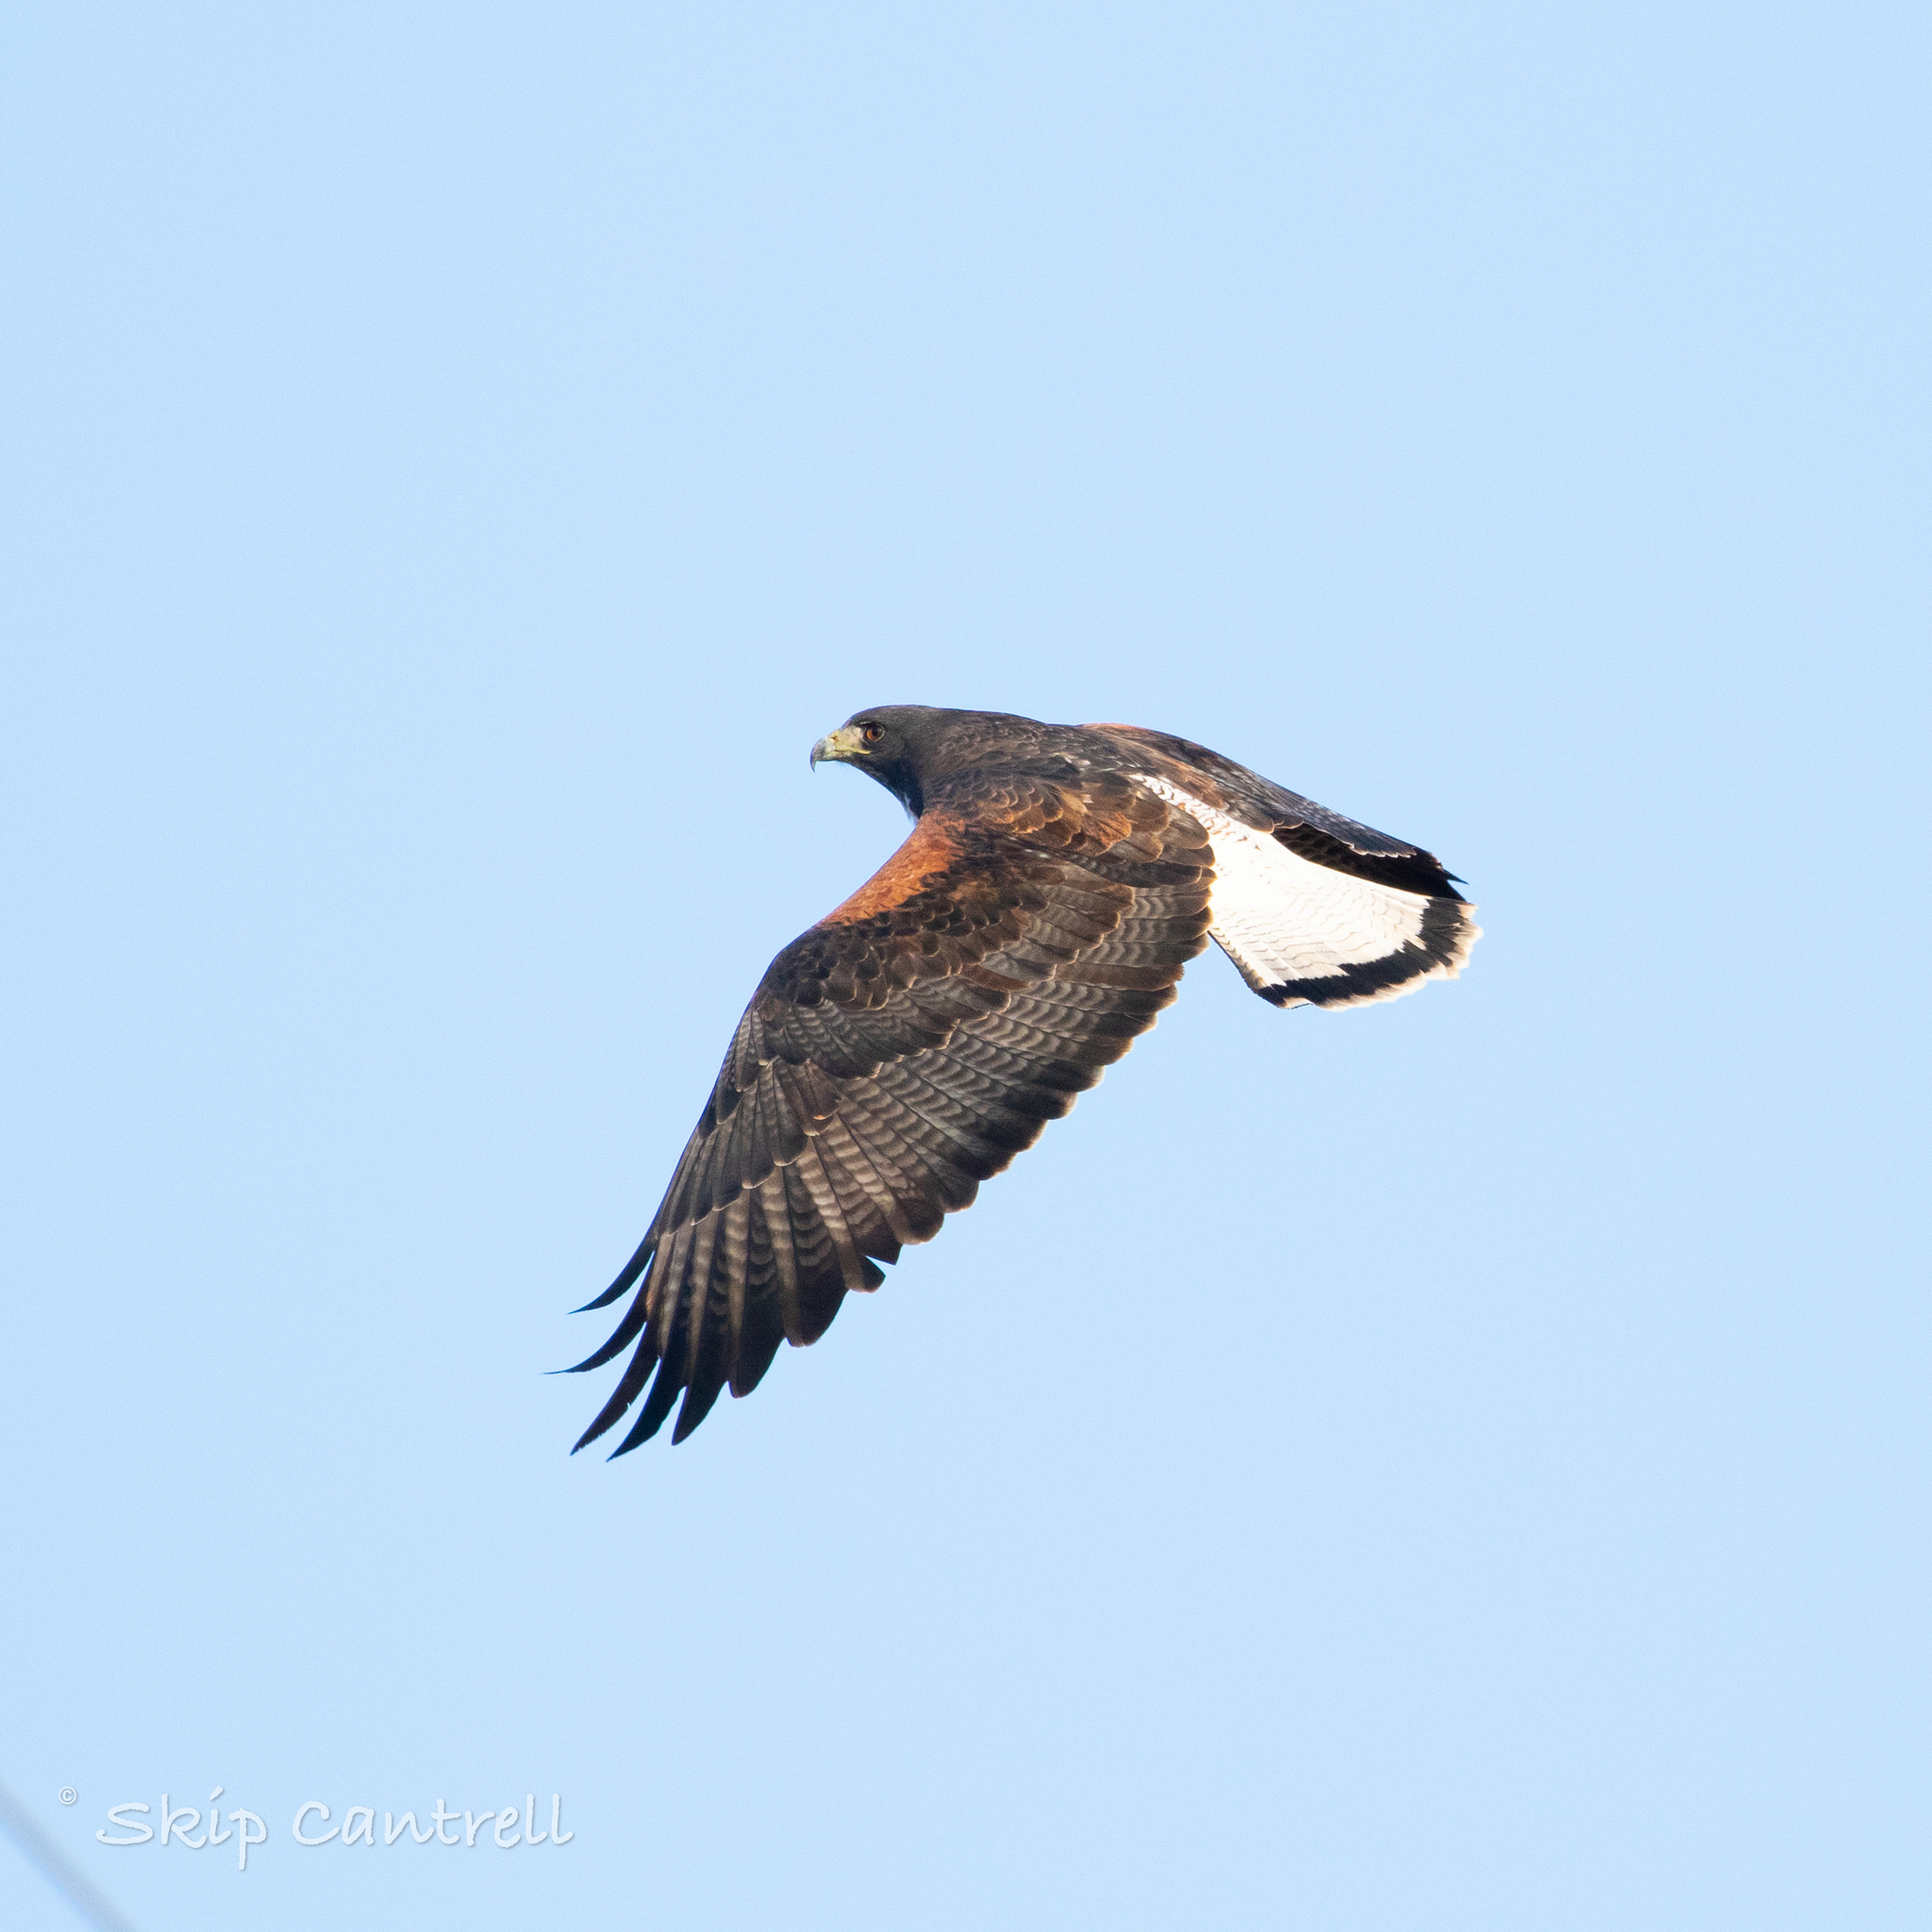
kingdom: Animalia
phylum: Chordata
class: Aves
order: Accipitriformes
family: Accipitridae
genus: Buteo
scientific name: Buteo albicaudatus
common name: White-tailed hawk
